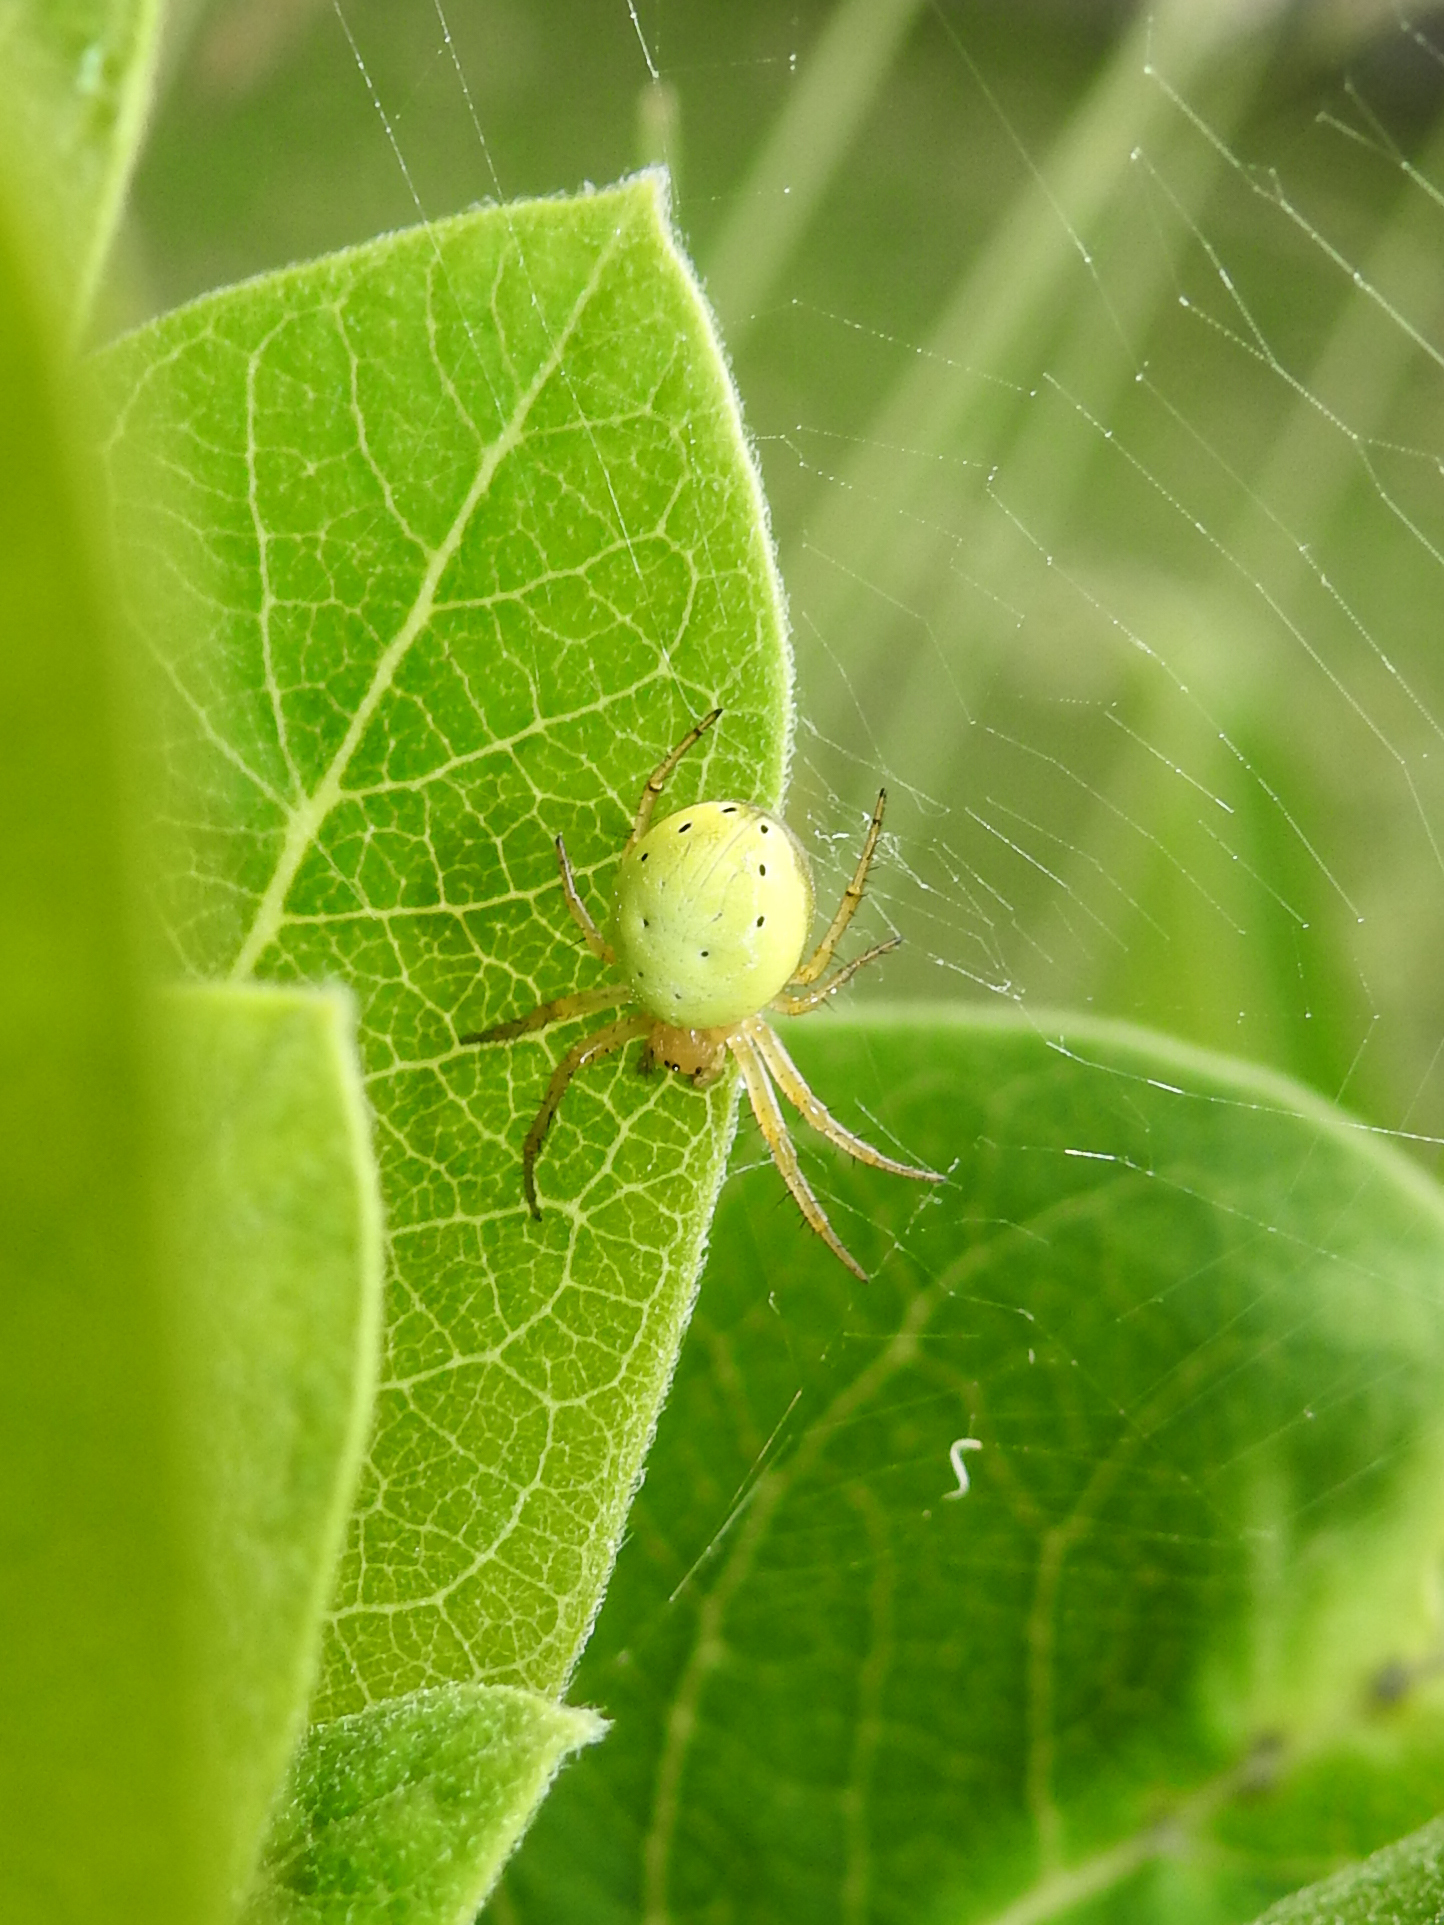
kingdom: Animalia
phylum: Arthropoda
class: Arachnida
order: Araneae
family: Araneidae
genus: Araniella
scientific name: Araniella displicata
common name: Sixspotted orb weaver
